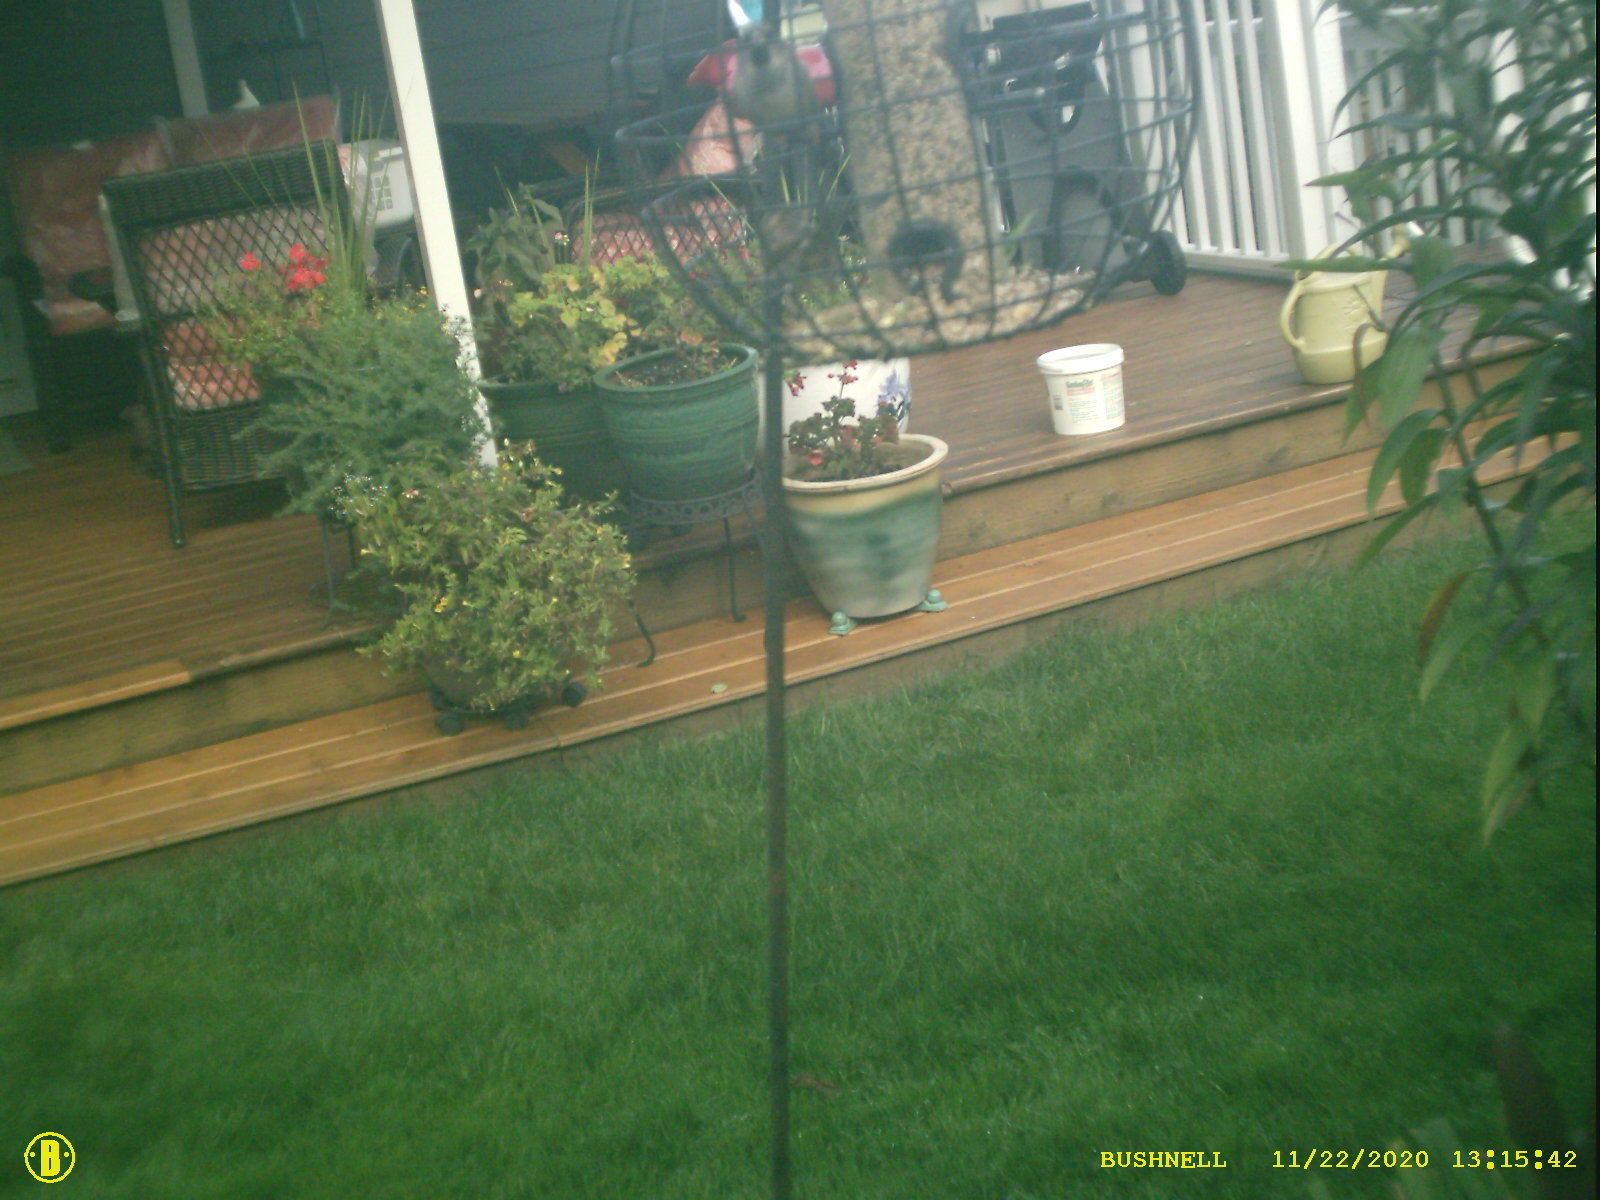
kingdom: Animalia
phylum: Chordata
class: Aves
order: Passeriformes
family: Passeridae
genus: Passer
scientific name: Passer domesticus
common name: House sparrow
